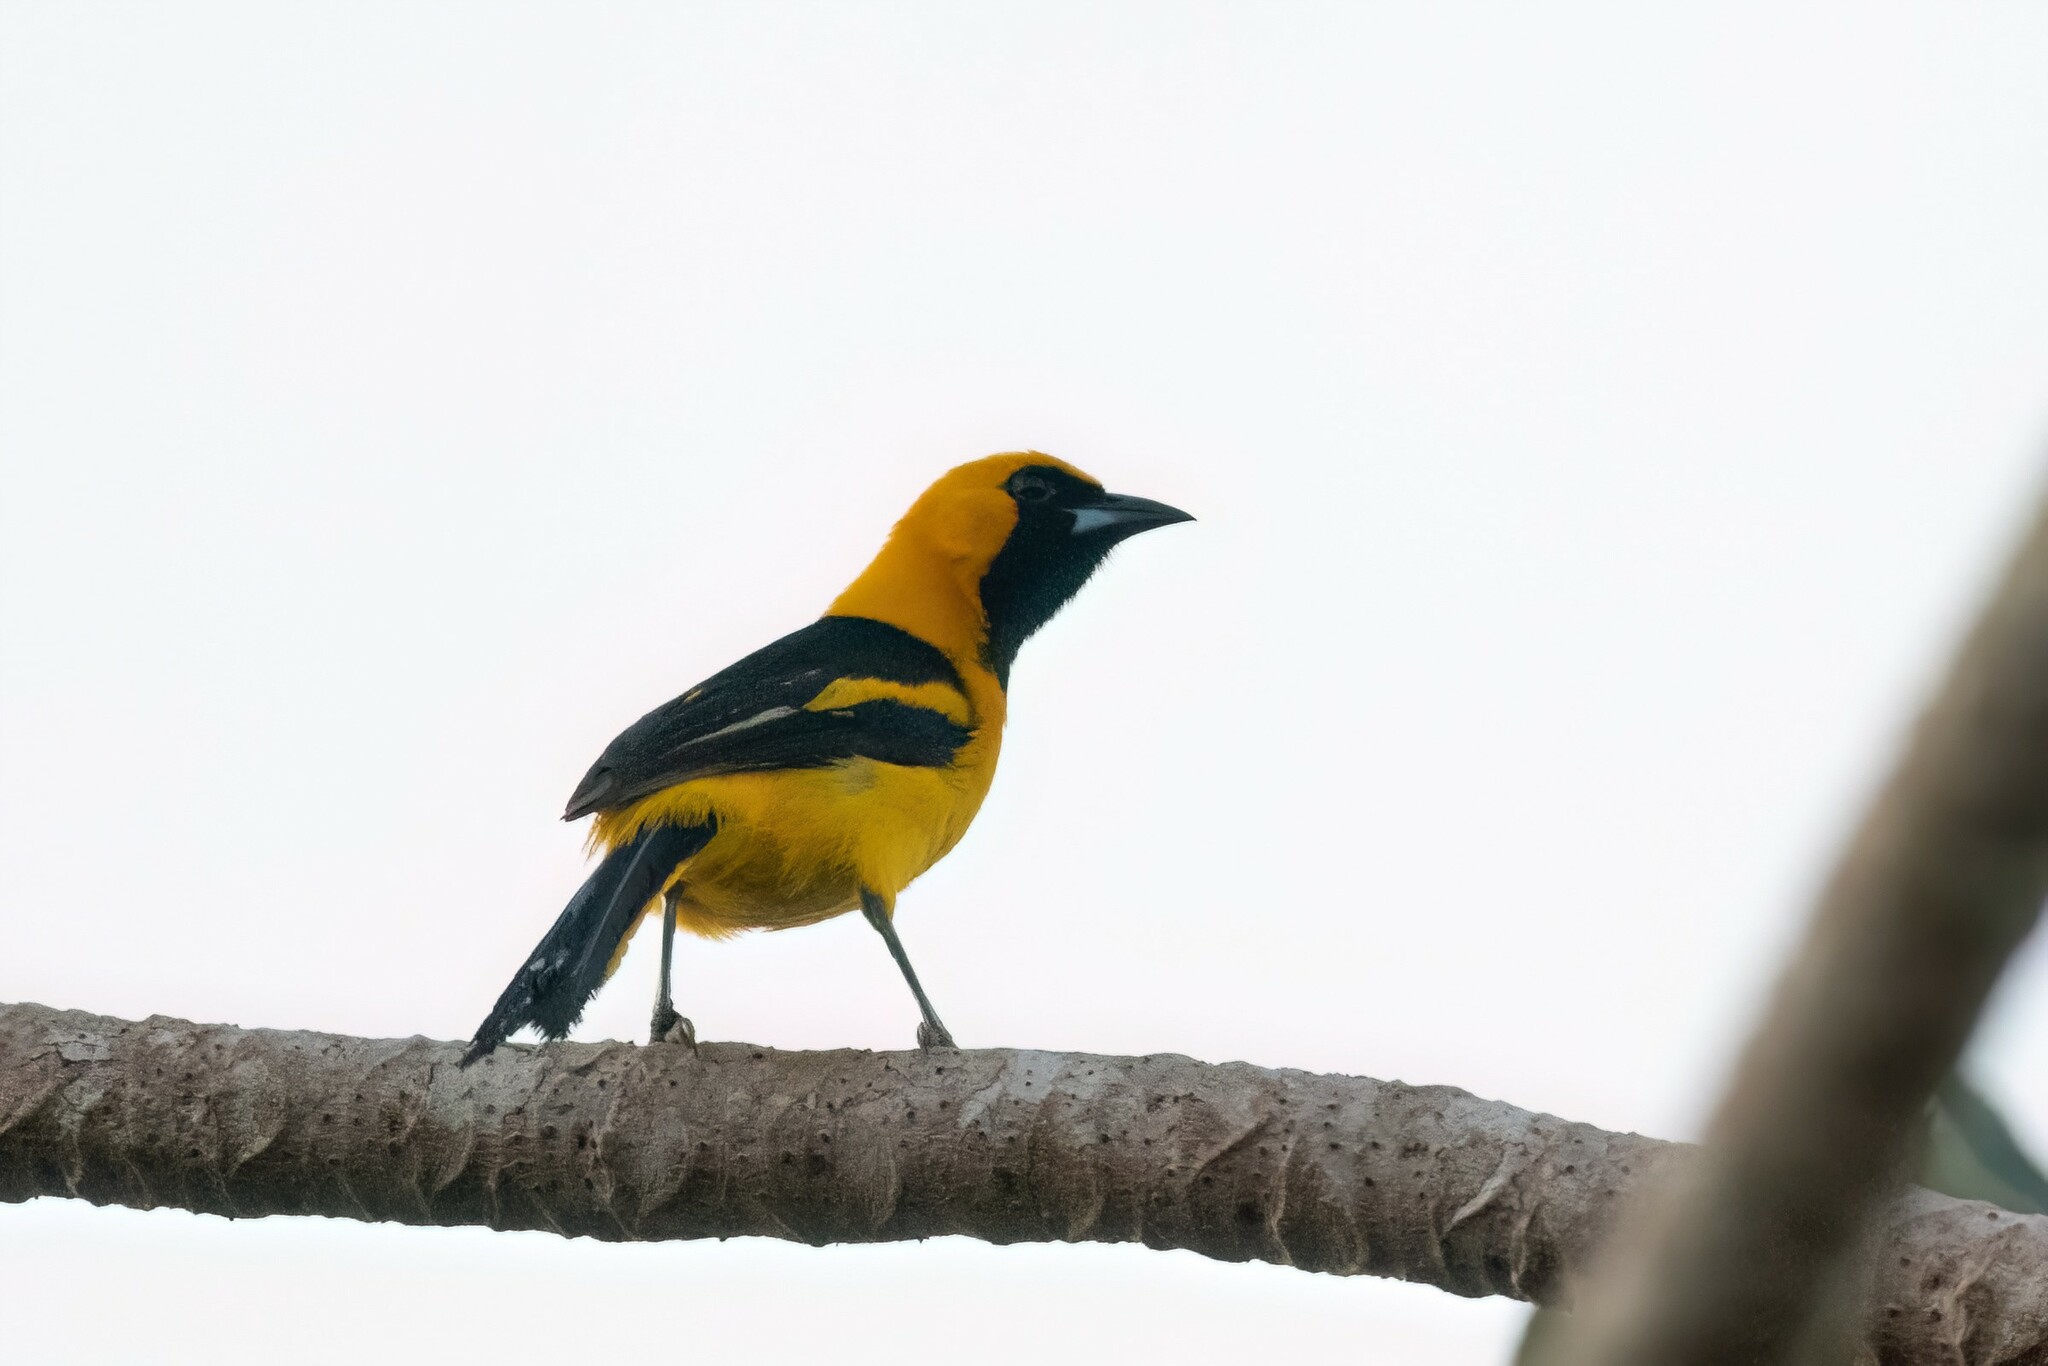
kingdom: Animalia
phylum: Chordata
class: Aves
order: Passeriformes
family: Icteridae
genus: Icterus
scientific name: Icterus mesomelas
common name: Yellow-tailed oriole
